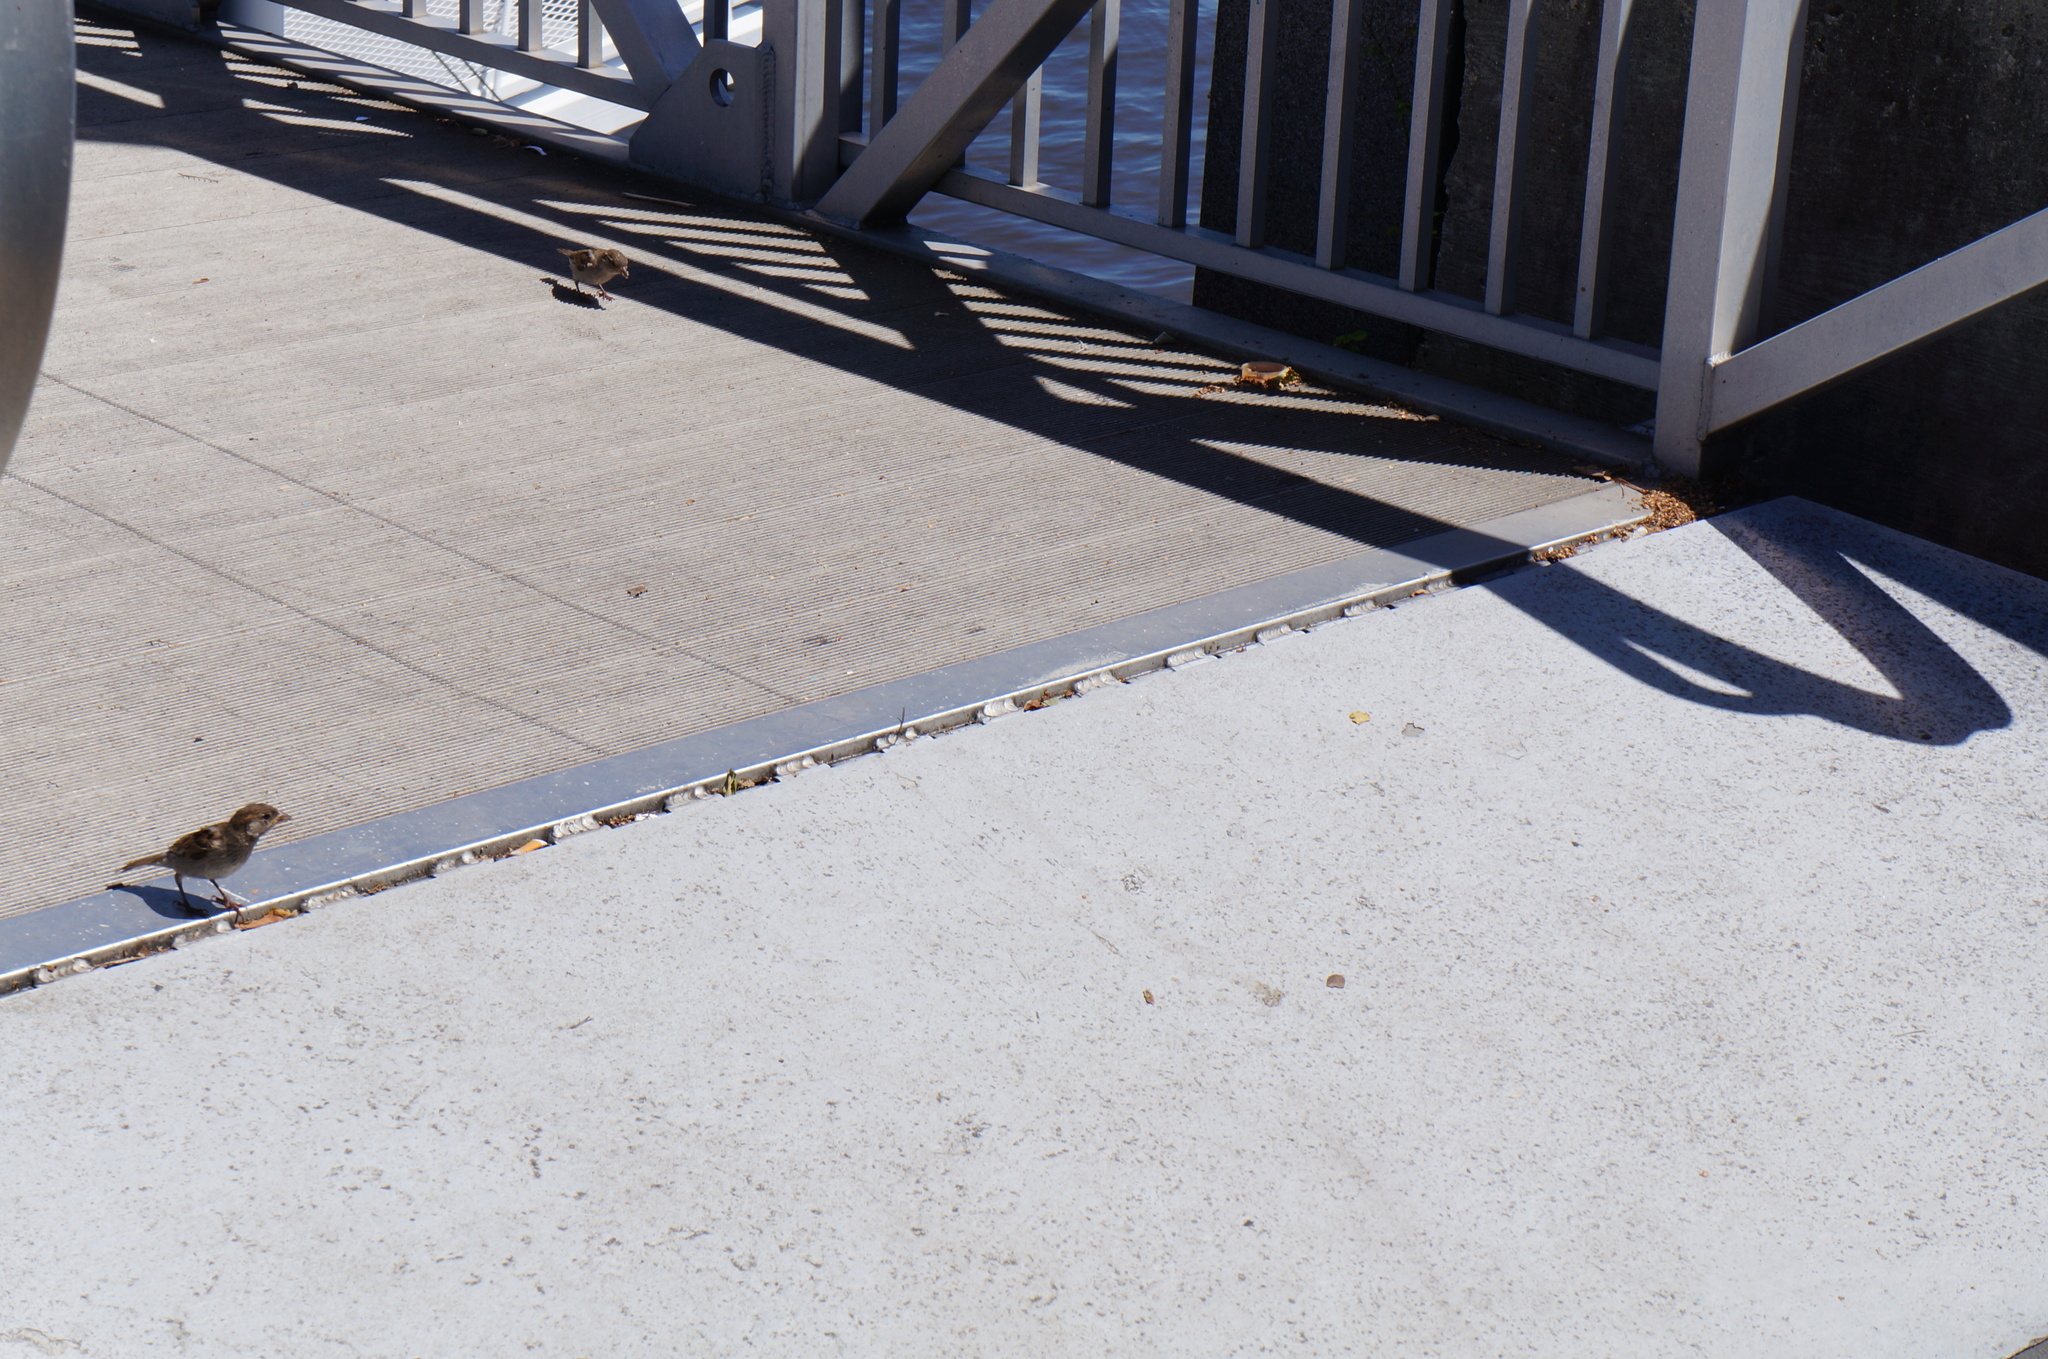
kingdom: Animalia
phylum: Chordata
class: Aves
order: Passeriformes
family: Passeridae
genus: Passer
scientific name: Passer domesticus
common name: House sparrow
